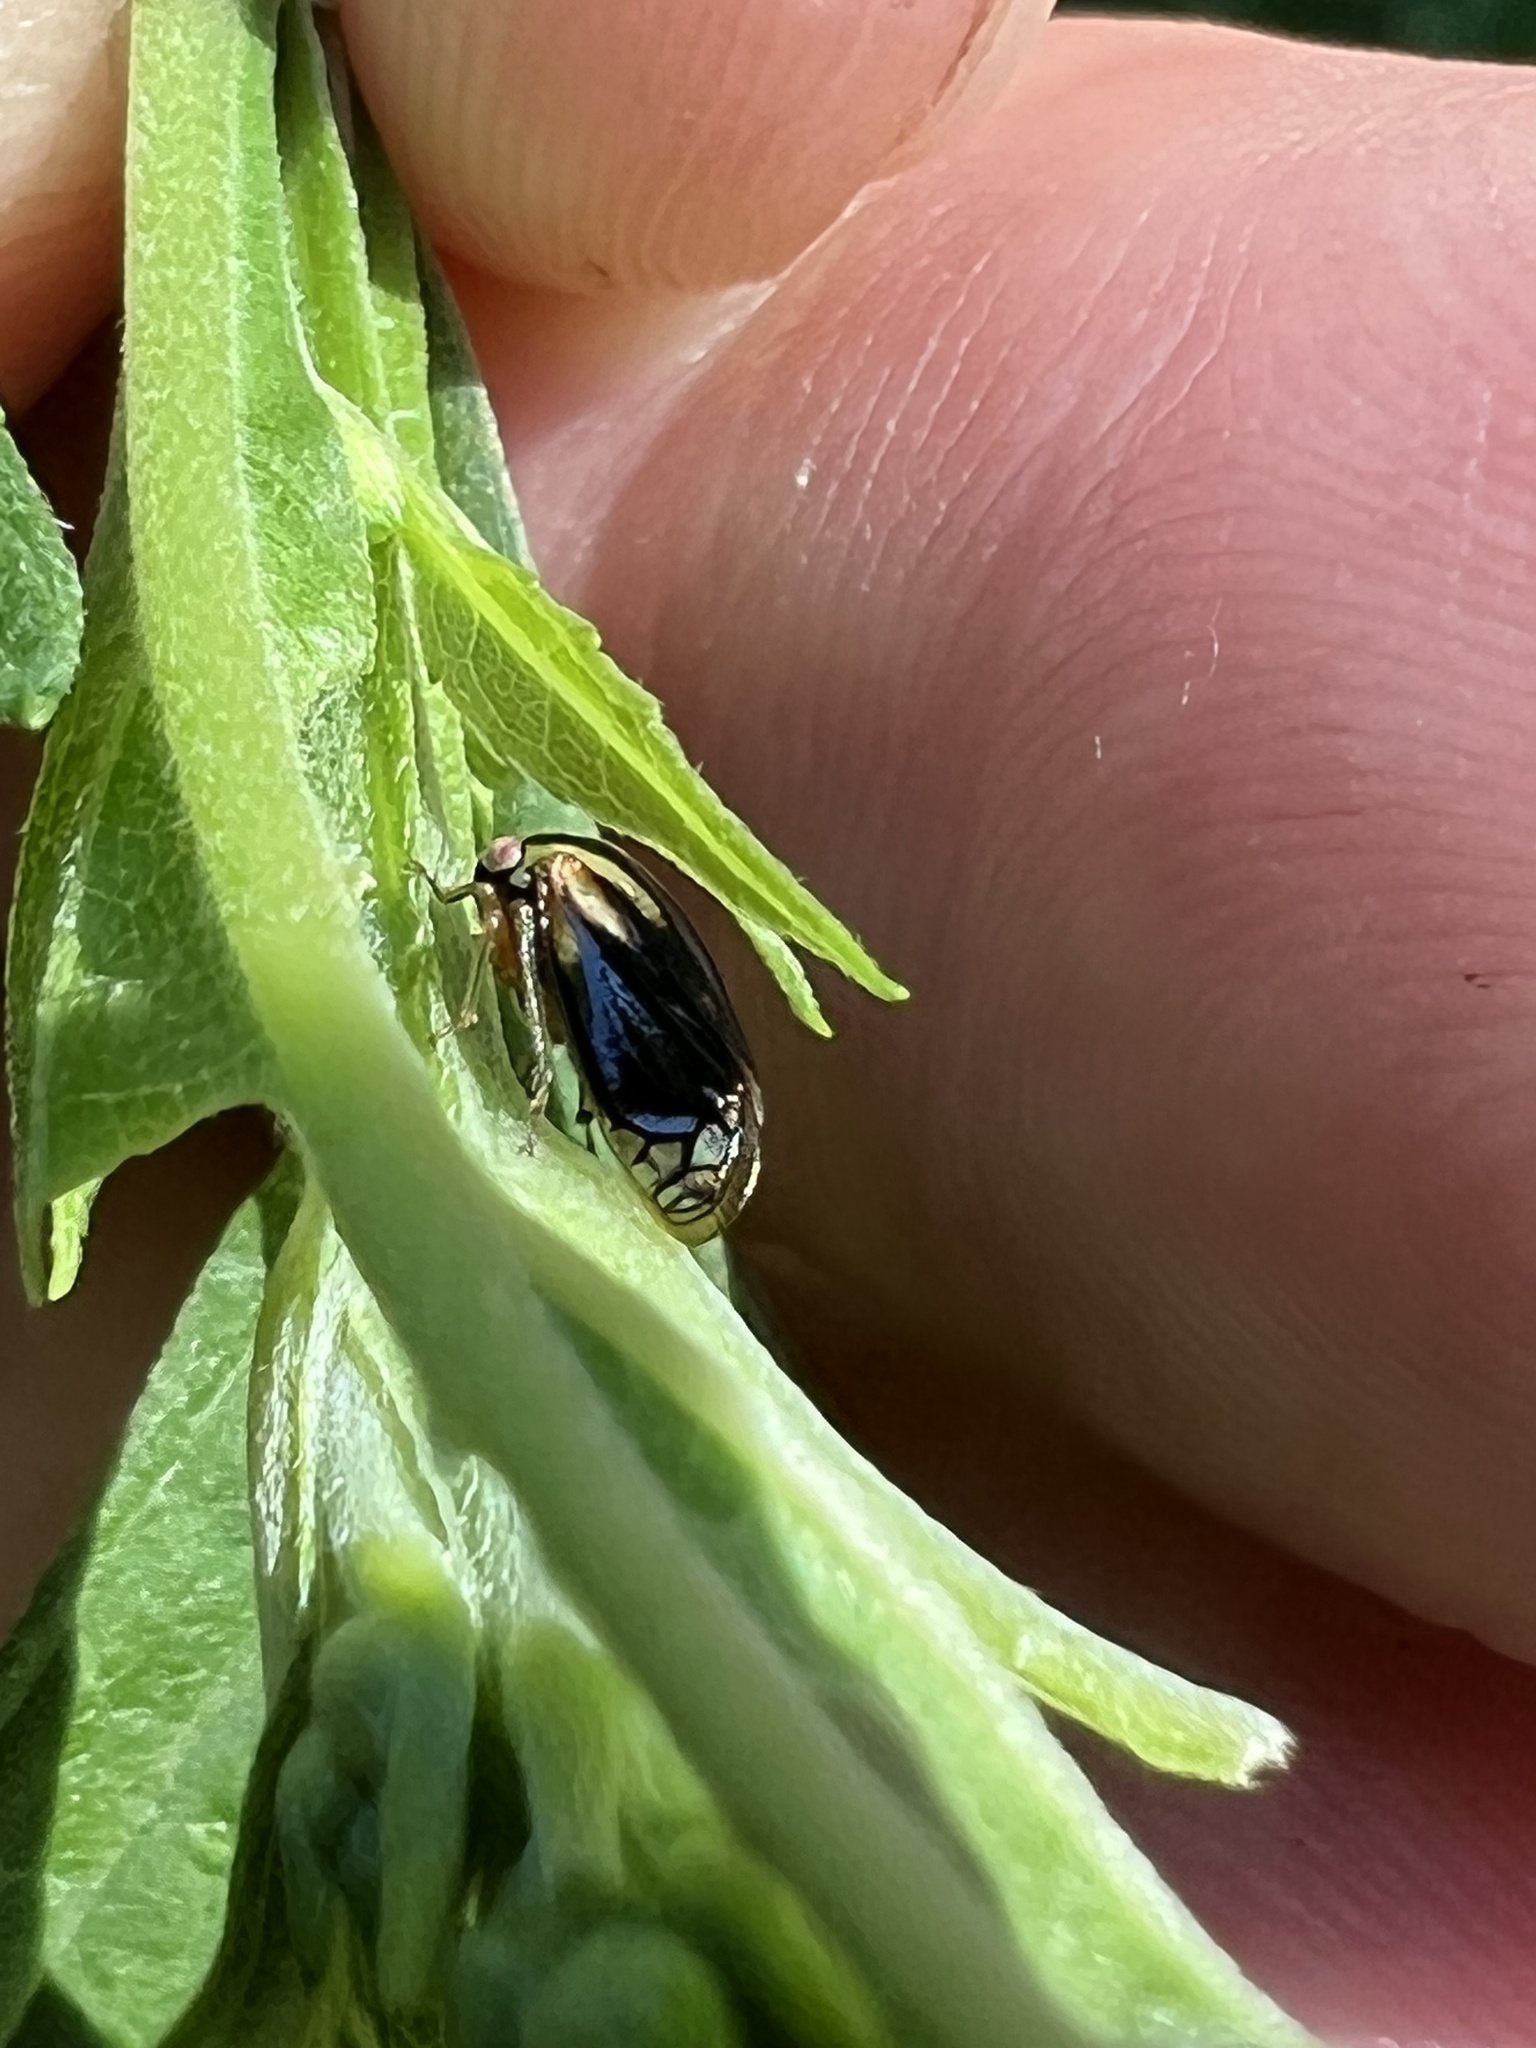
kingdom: Animalia
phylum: Arthropoda
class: Insecta
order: Hemiptera
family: Membracidae
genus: Acutalis
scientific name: Acutalis tartarea
